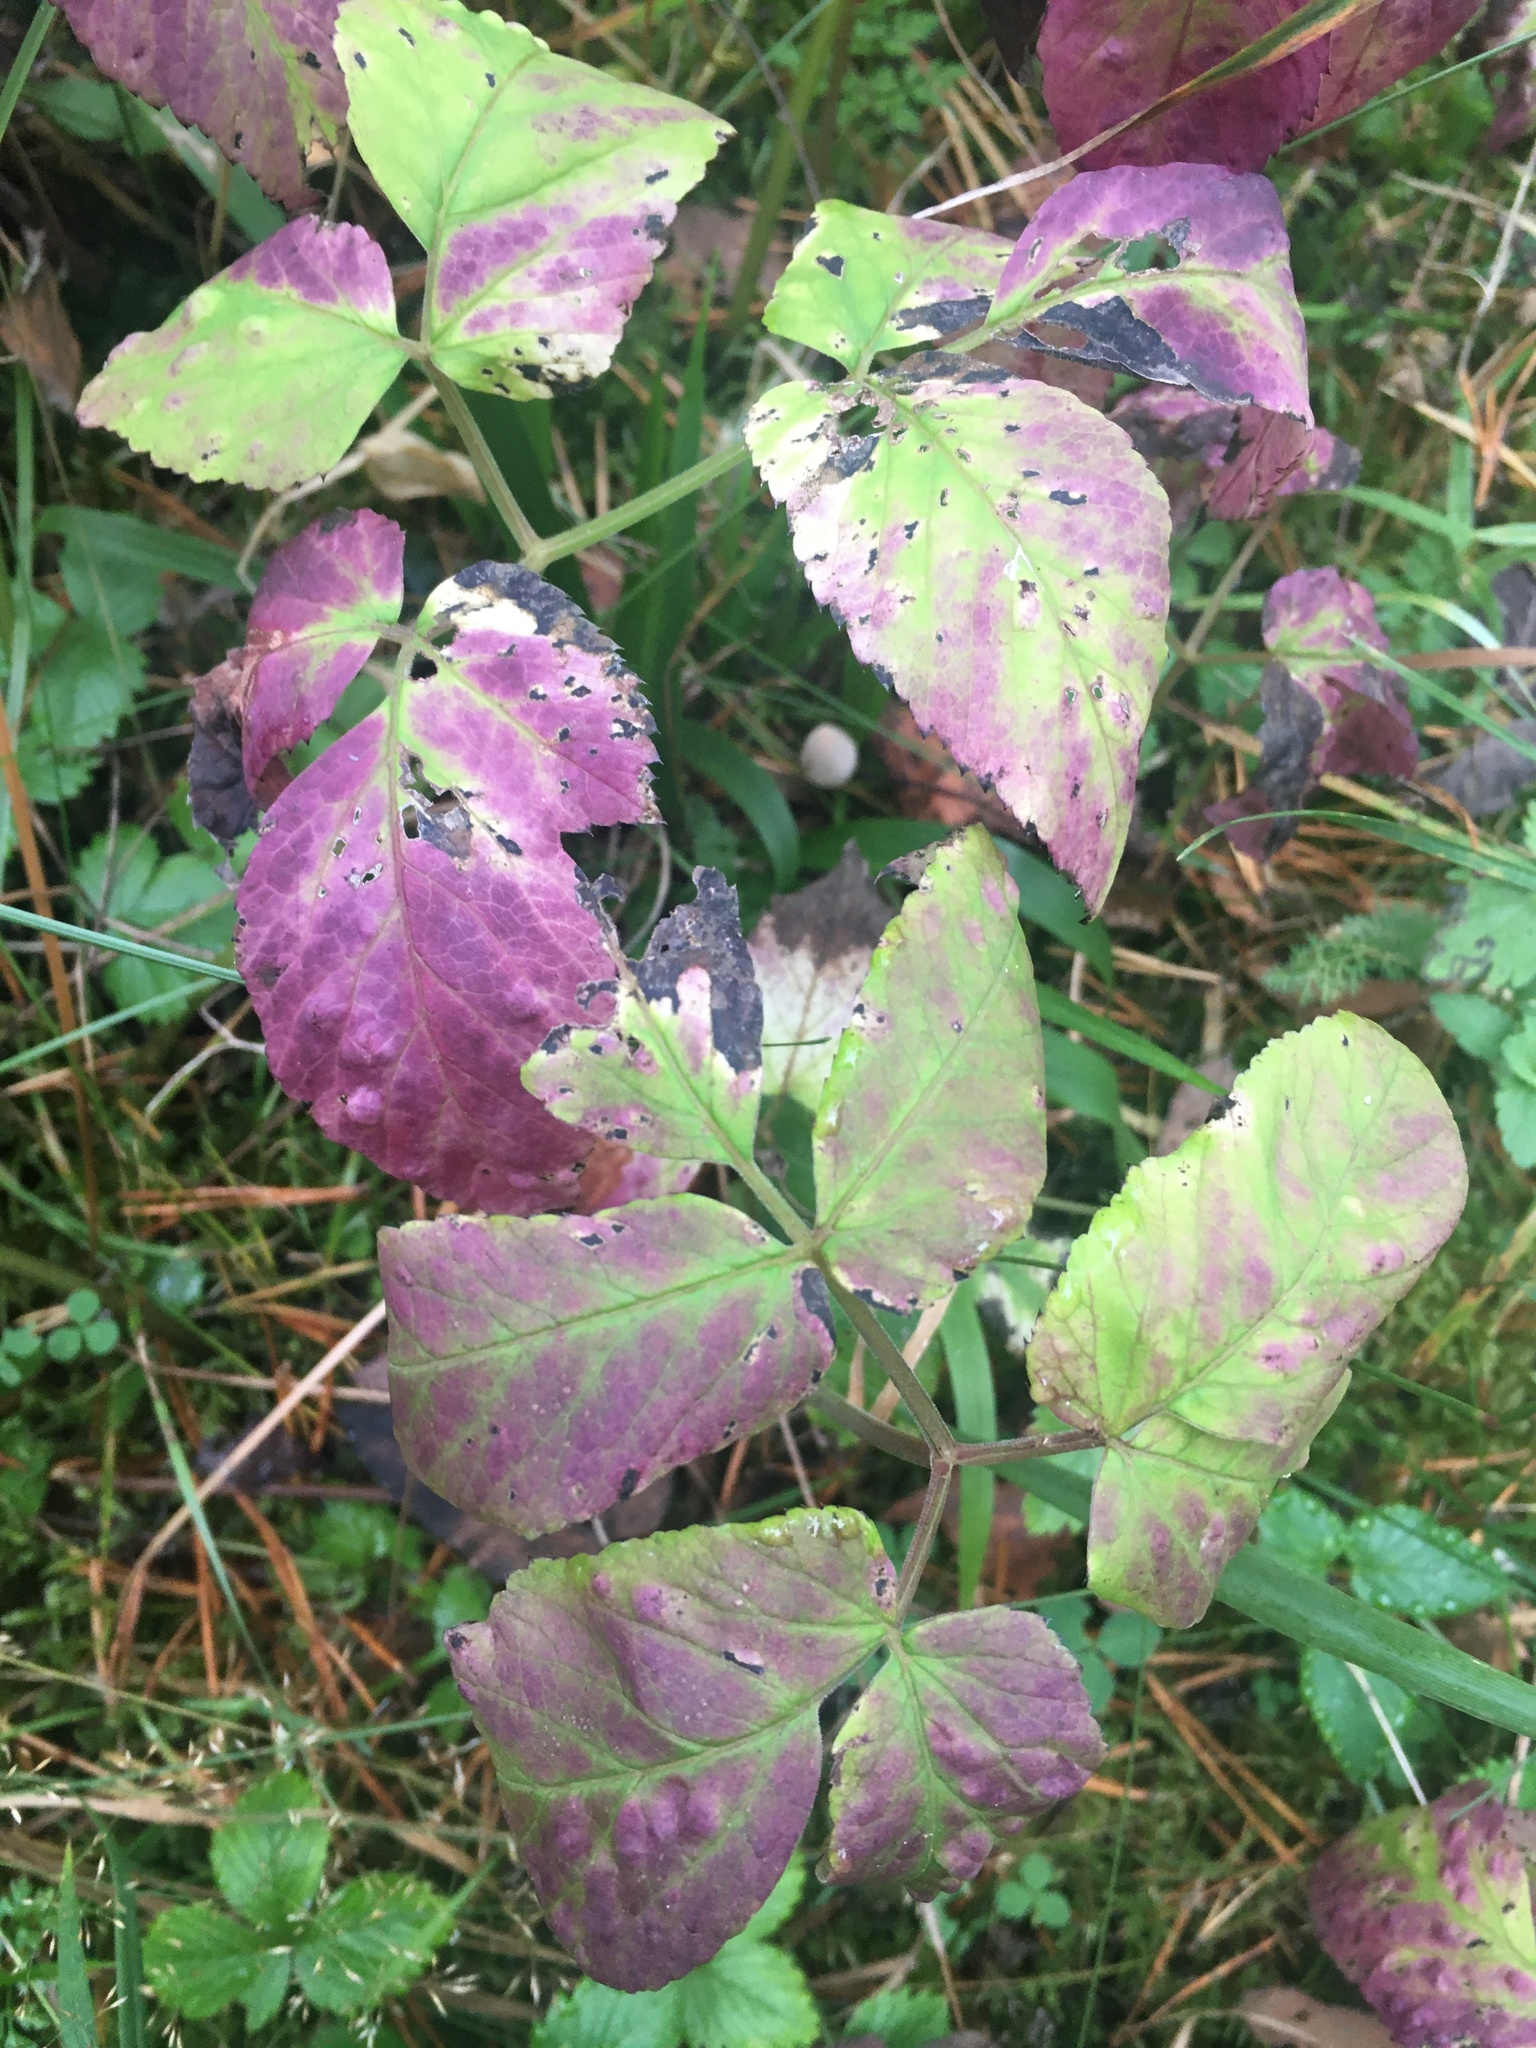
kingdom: Plantae
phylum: Tracheophyta
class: Magnoliopsida
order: Apiales
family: Apiaceae
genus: Aegopodium
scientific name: Aegopodium podagraria
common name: Ground-elder
